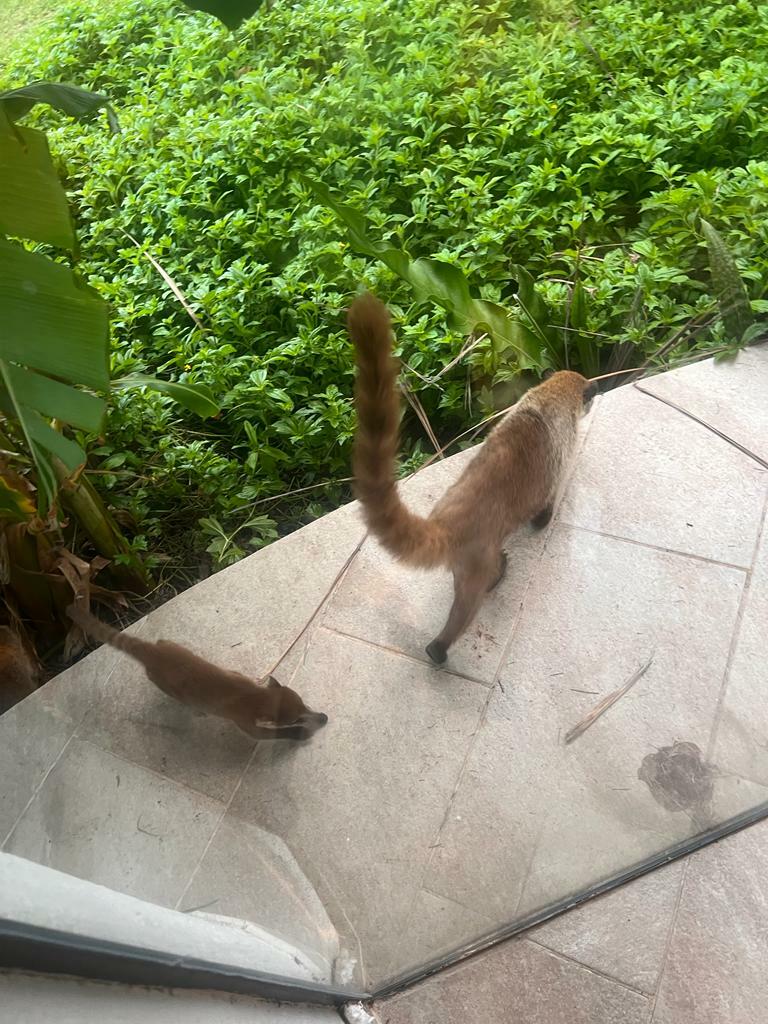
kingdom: Animalia
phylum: Chordata
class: Mammalia
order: Carnivora
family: Procyonidae
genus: Nasua
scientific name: Nasua narica
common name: White-nosed coati
